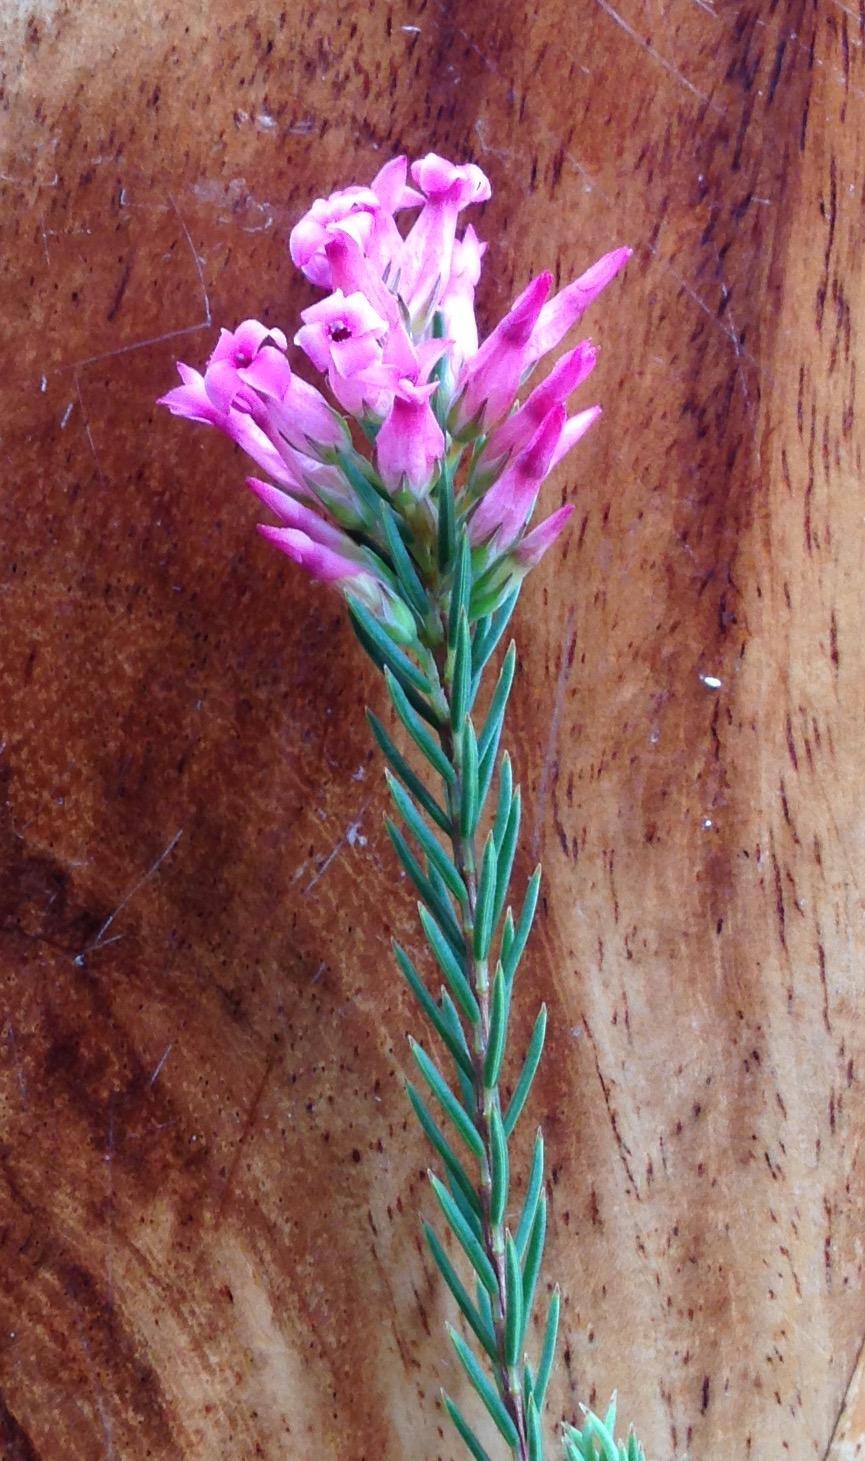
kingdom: Plantae
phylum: Tracheophyta
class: Magnoliopsida
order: Ericales
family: Ericaceae
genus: Erica
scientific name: Erica georgica
